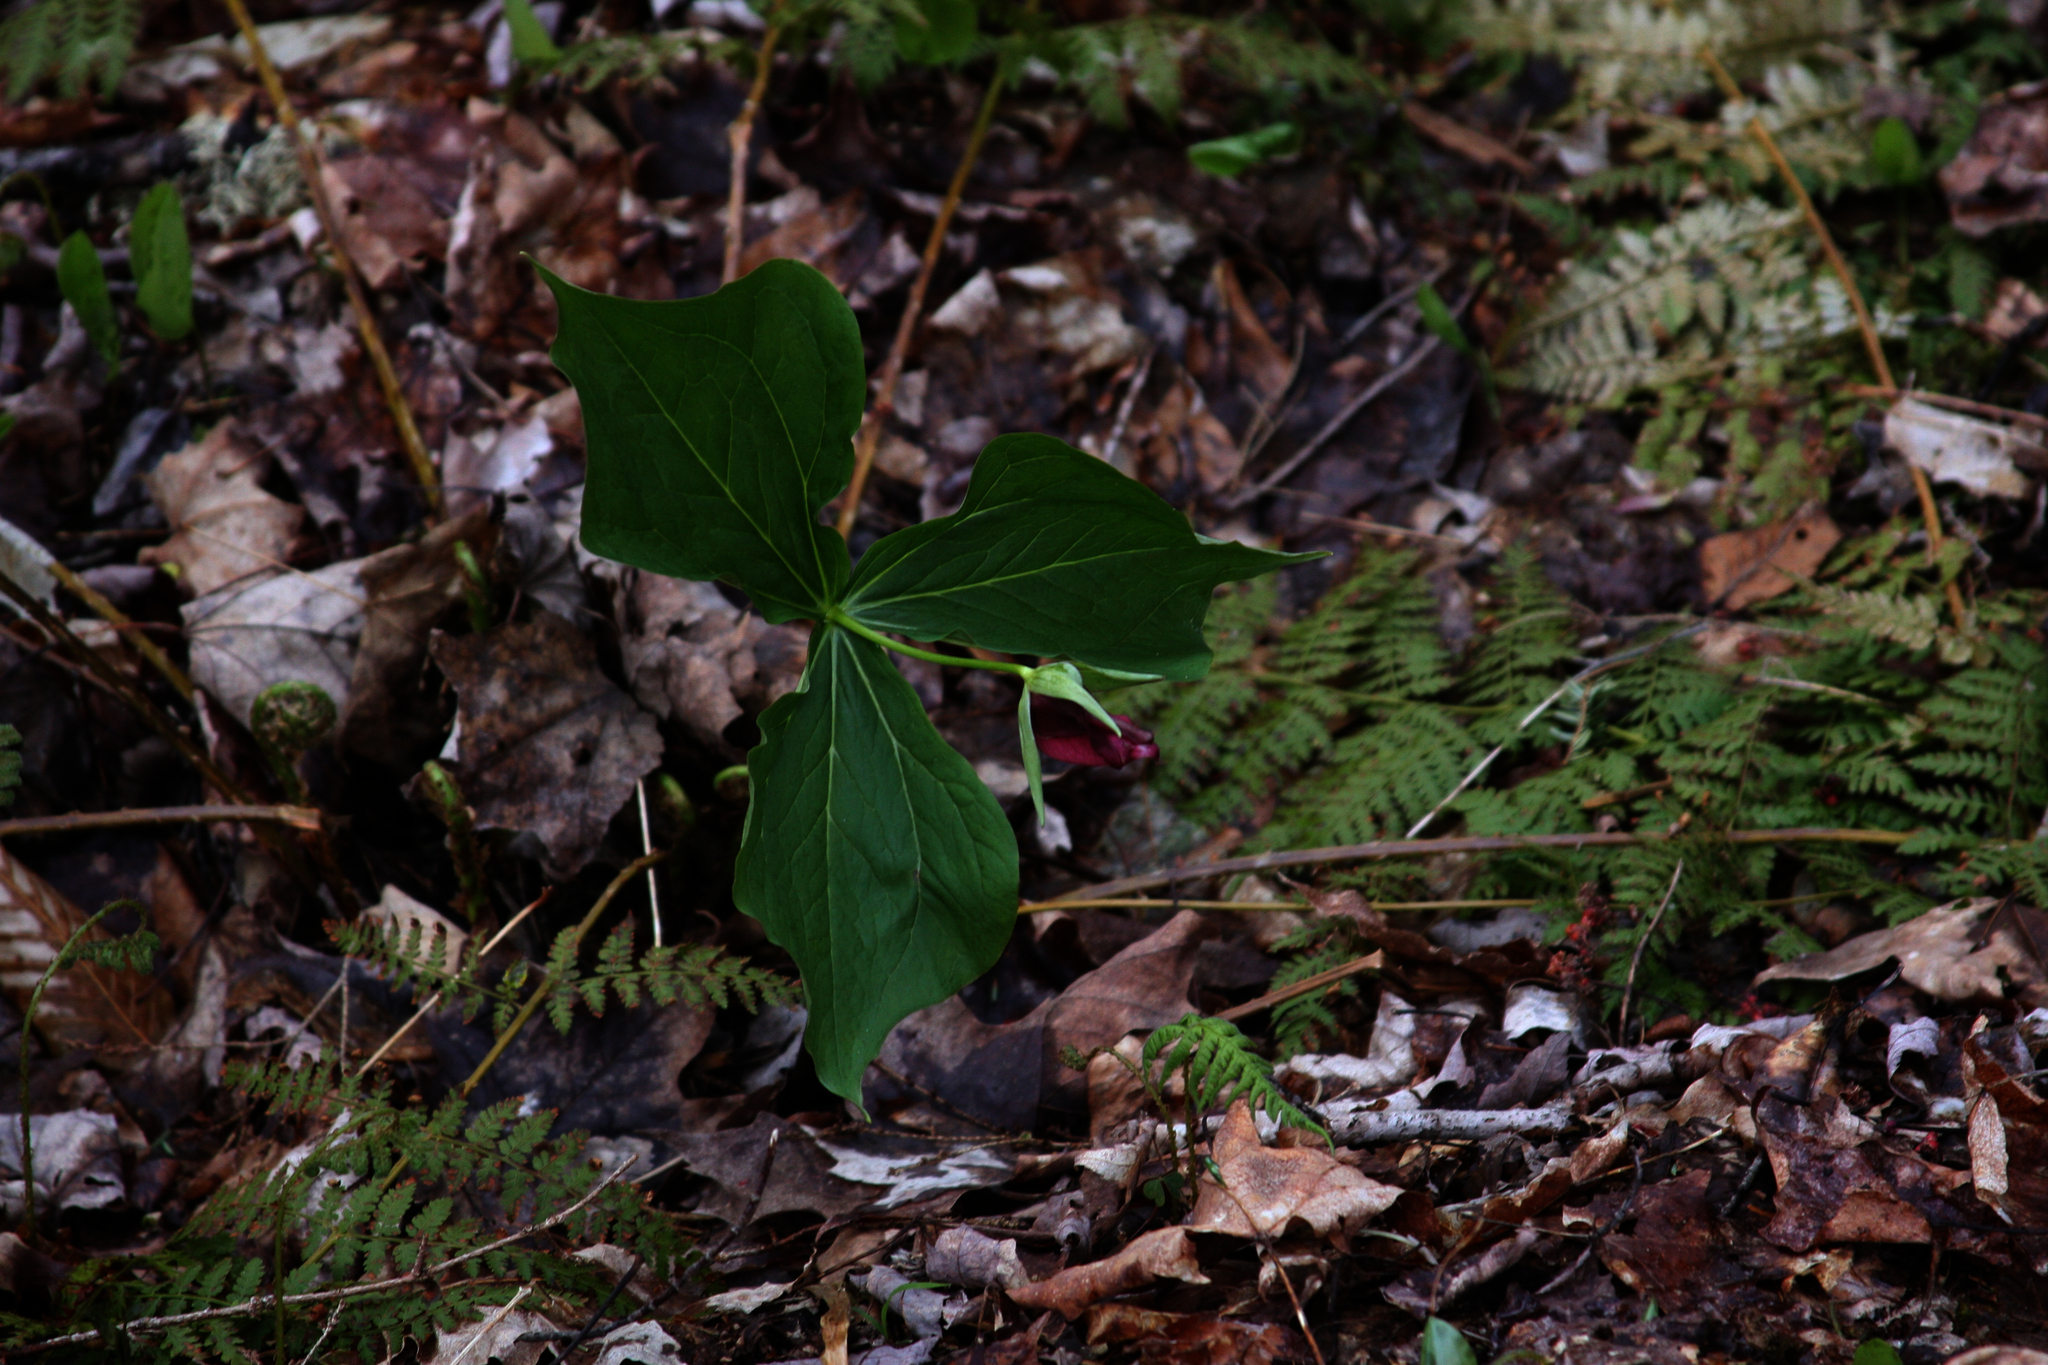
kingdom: Plantae
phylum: Tracheophyta
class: Liliopsida
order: Liliales
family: Melanthiaceae
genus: Trillium
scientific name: Trillium erectum
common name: Purple trillium
